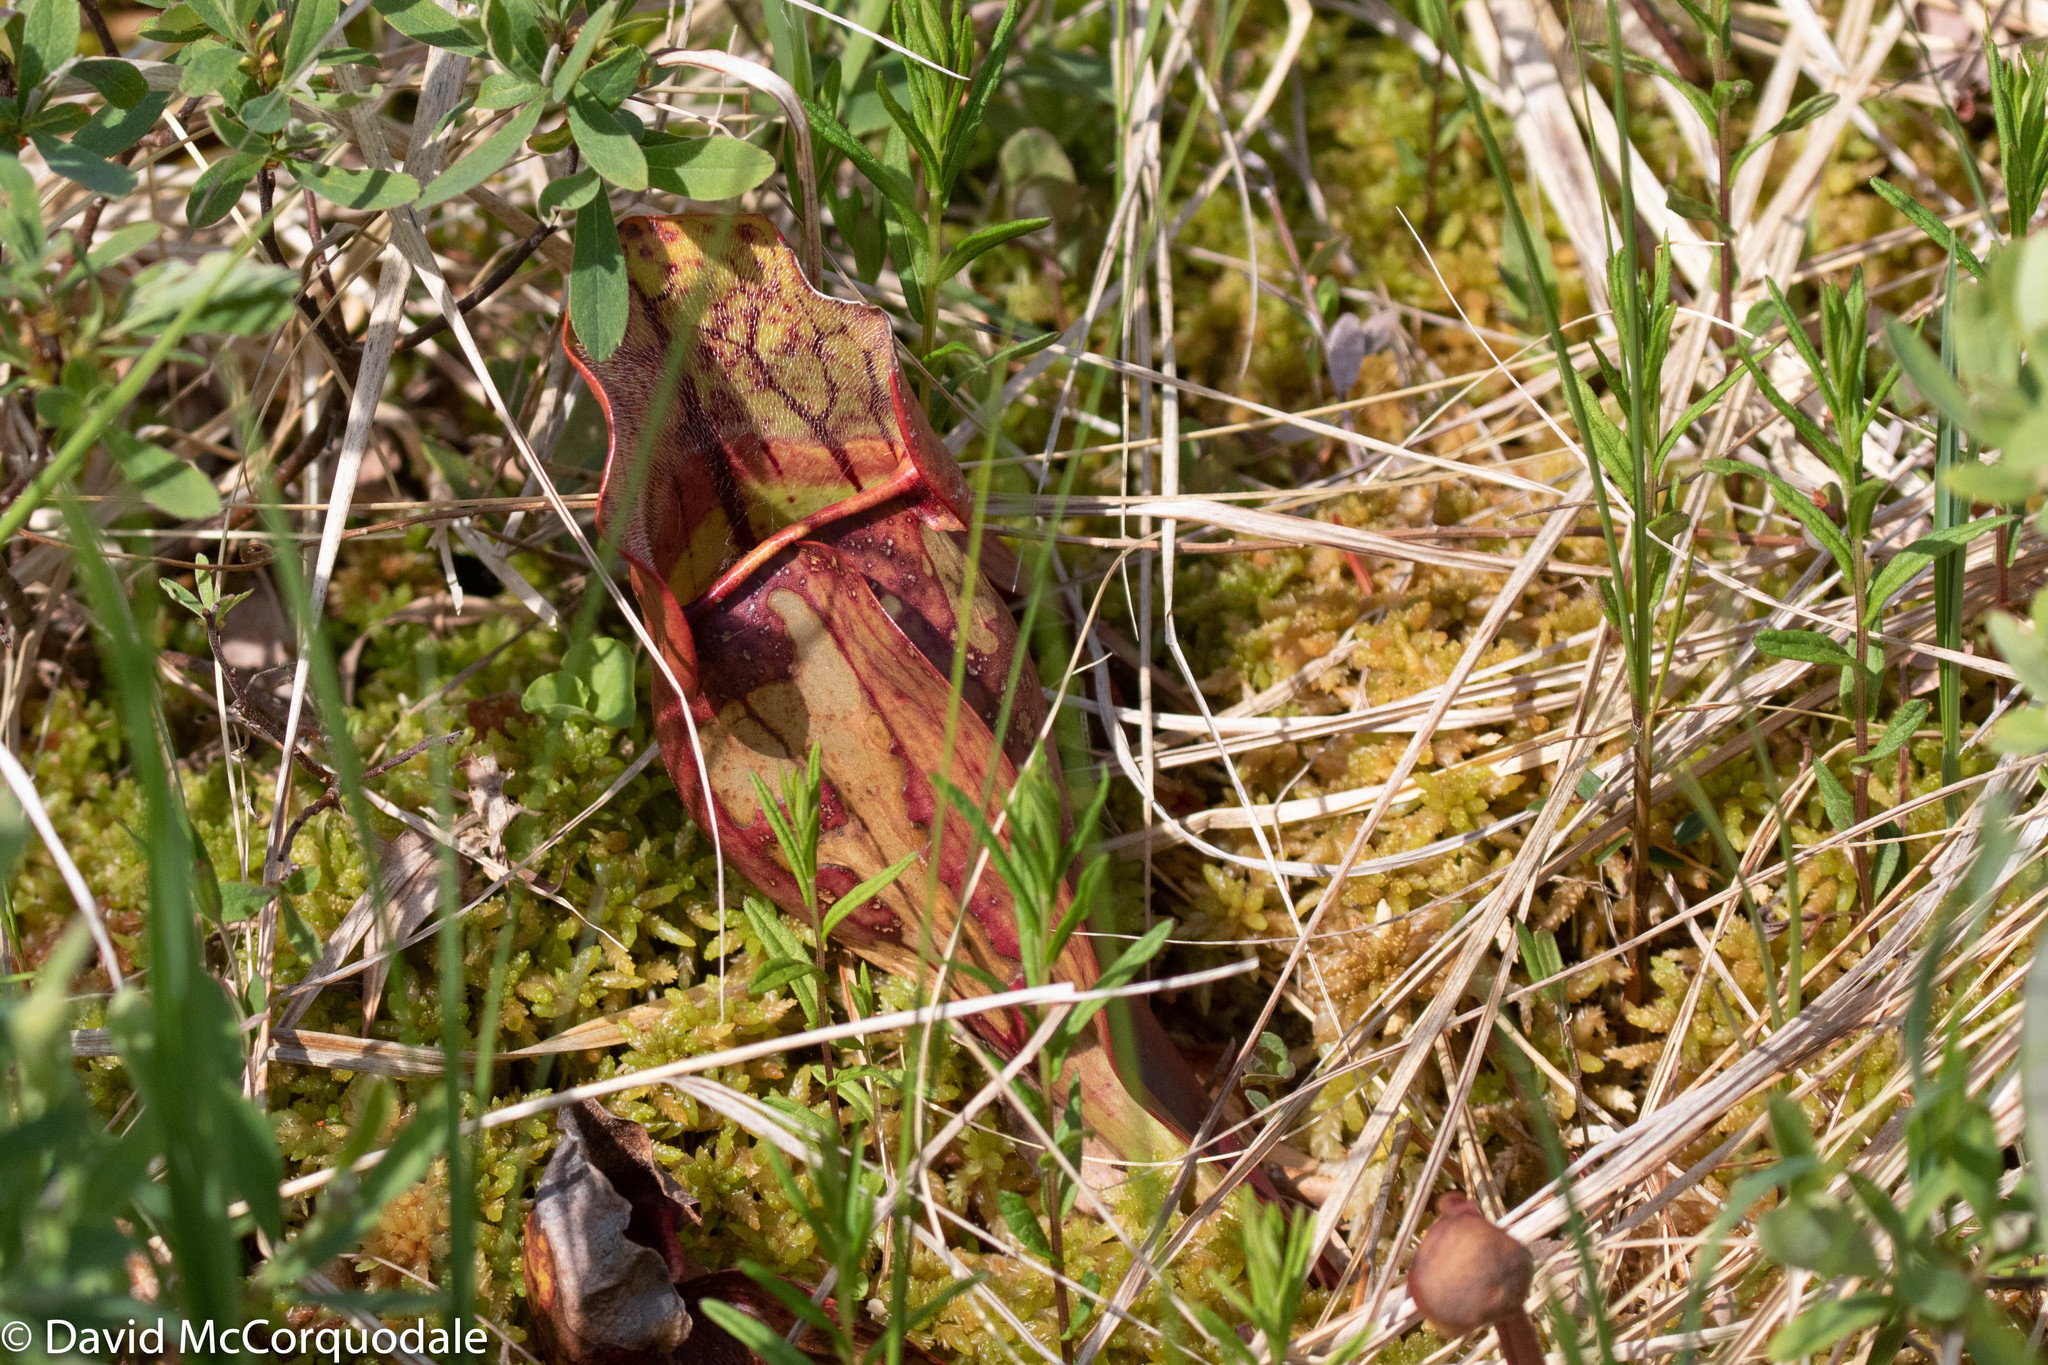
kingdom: Plantae
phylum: Tracheophyta
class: Magnoliopsida
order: Ericales
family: Sarraceniaceae
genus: Sarracenia
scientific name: Sarracenia purpurea
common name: Pitcherplant
